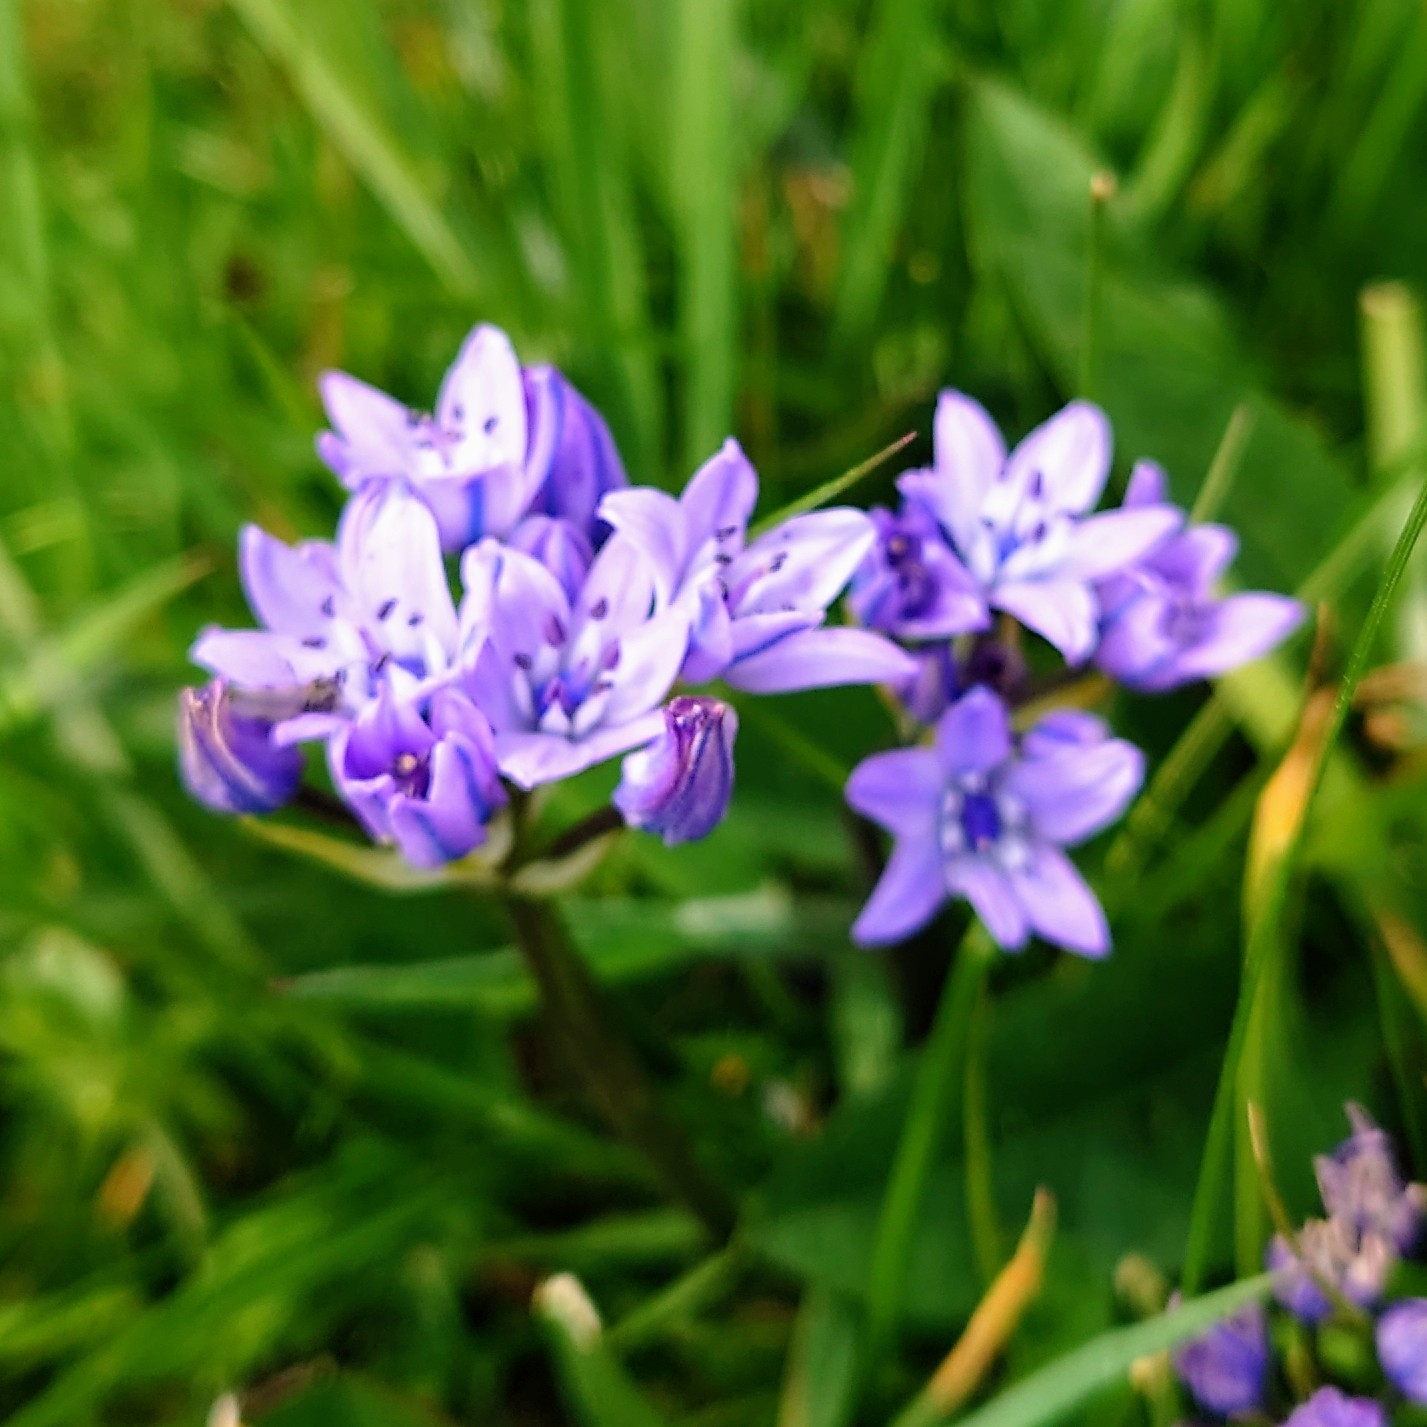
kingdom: Plantae
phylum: Tracheophyta
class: Liliopsida
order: Asparagales
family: Asparagaceae
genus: Scilla
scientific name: Scilla verna
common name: Spring squill
